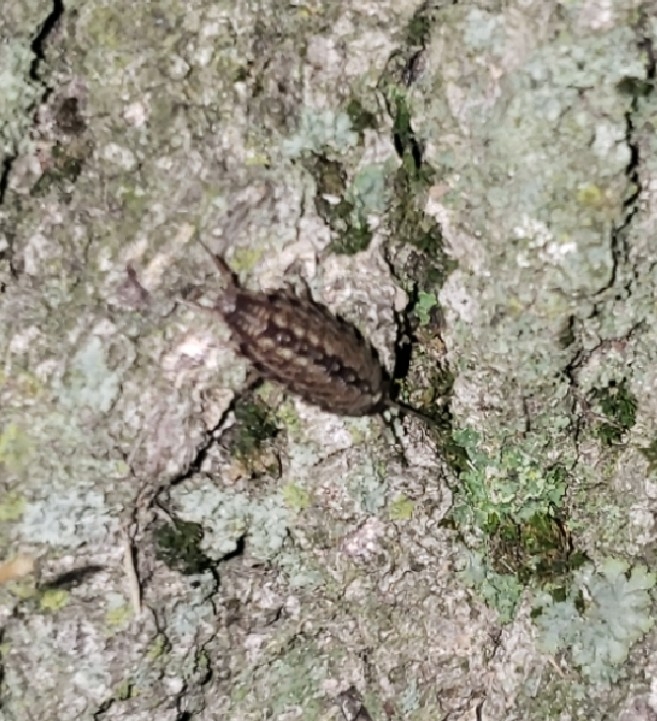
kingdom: Animalia
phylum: Arthropoda
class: Malacostraca
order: Isopoda
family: Philosciidae
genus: Philoscia
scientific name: Philoscia muscorum
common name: Common striped woodlouse
